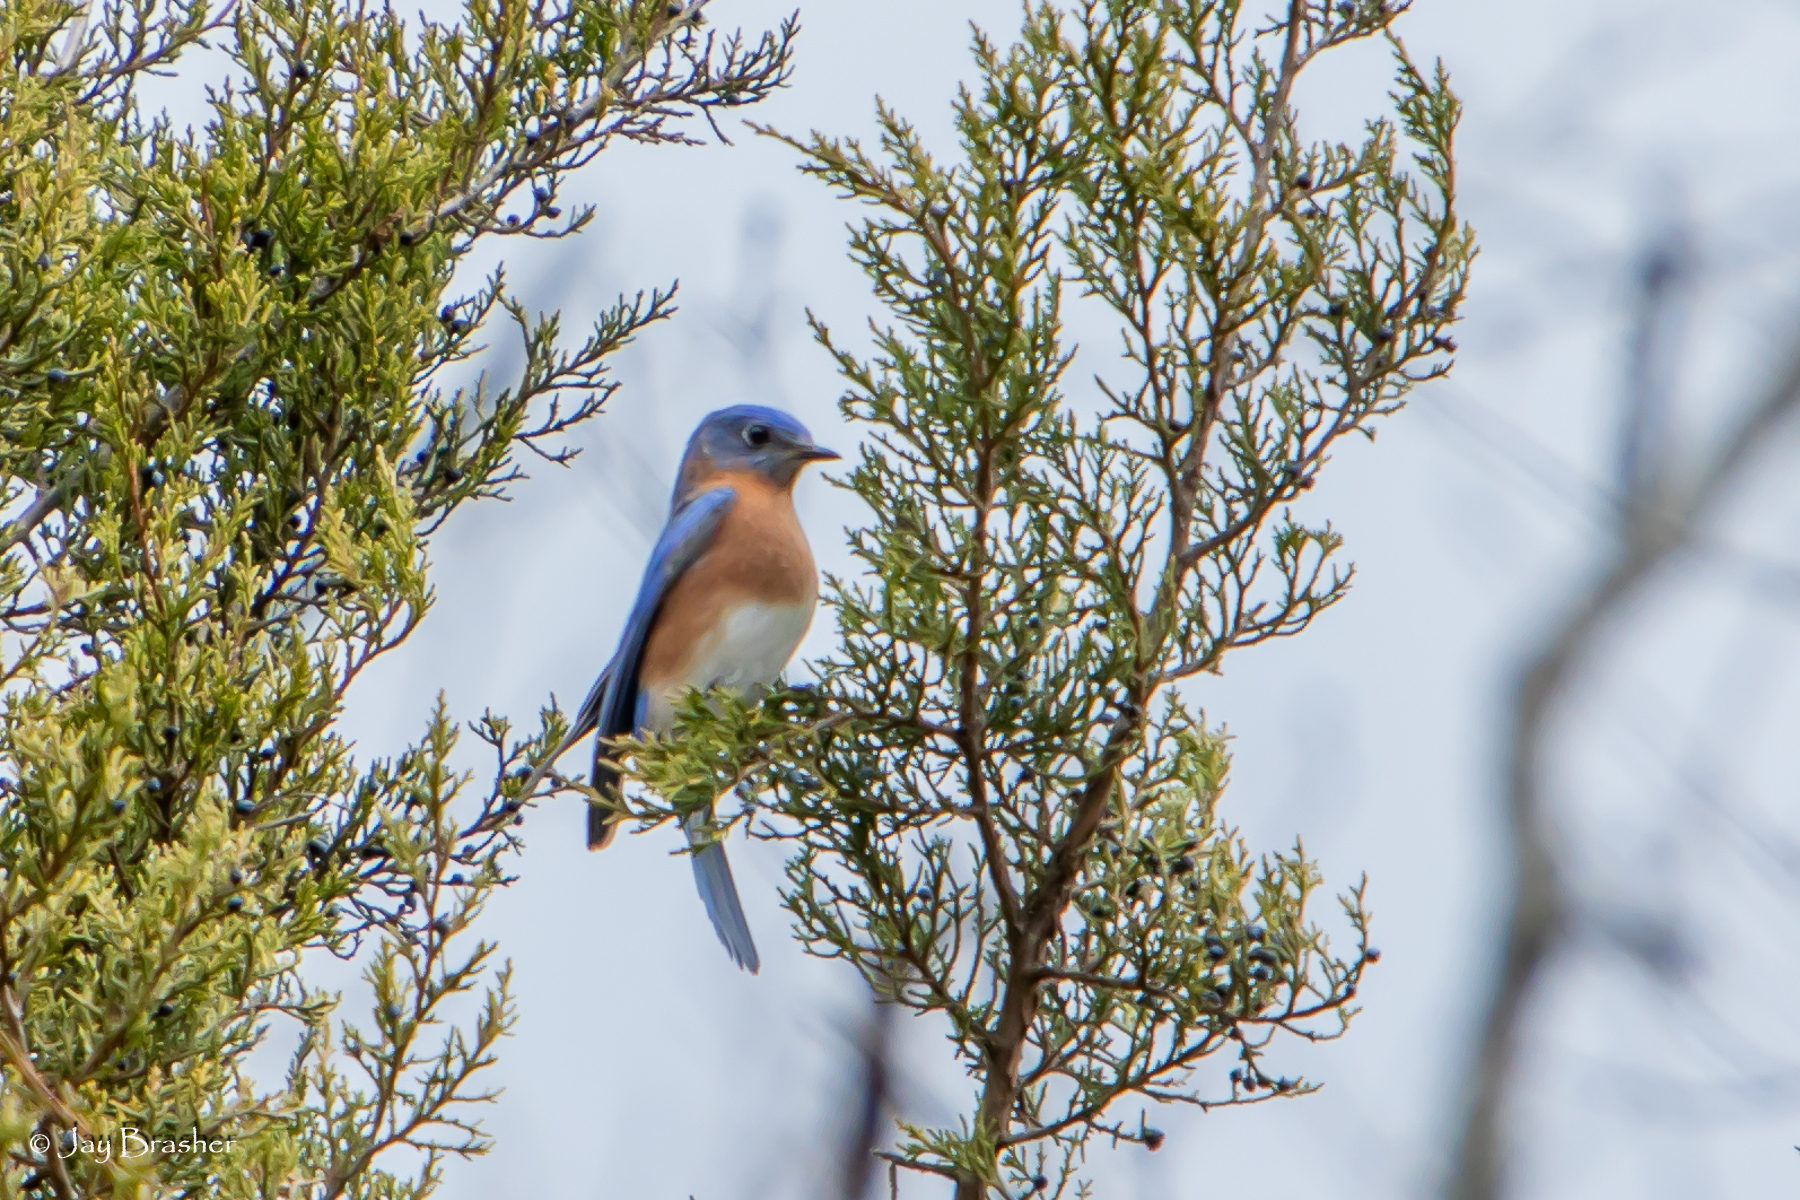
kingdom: Animalia
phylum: Chordata
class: Aves
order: Passeriformes
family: Turdidae
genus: Sialia
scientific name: Sialia sialis
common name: Eastern bluebird
